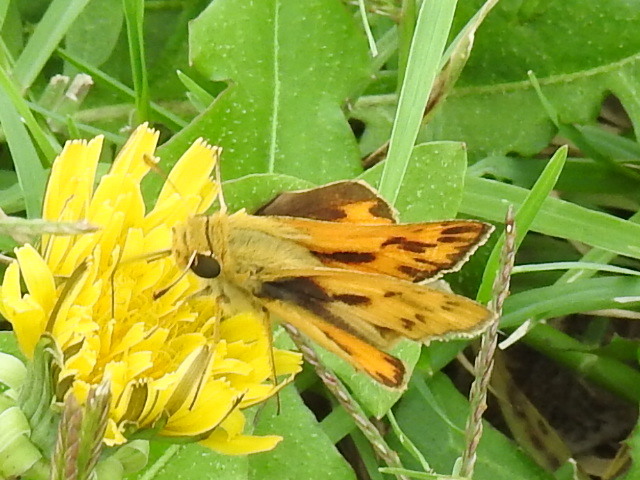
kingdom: Animalia
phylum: Arthropoda
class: Insecta
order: Lepidoptera
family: Hesperiidae
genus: Hylephila
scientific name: Hylephila phyleus
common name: Fiery skipper
